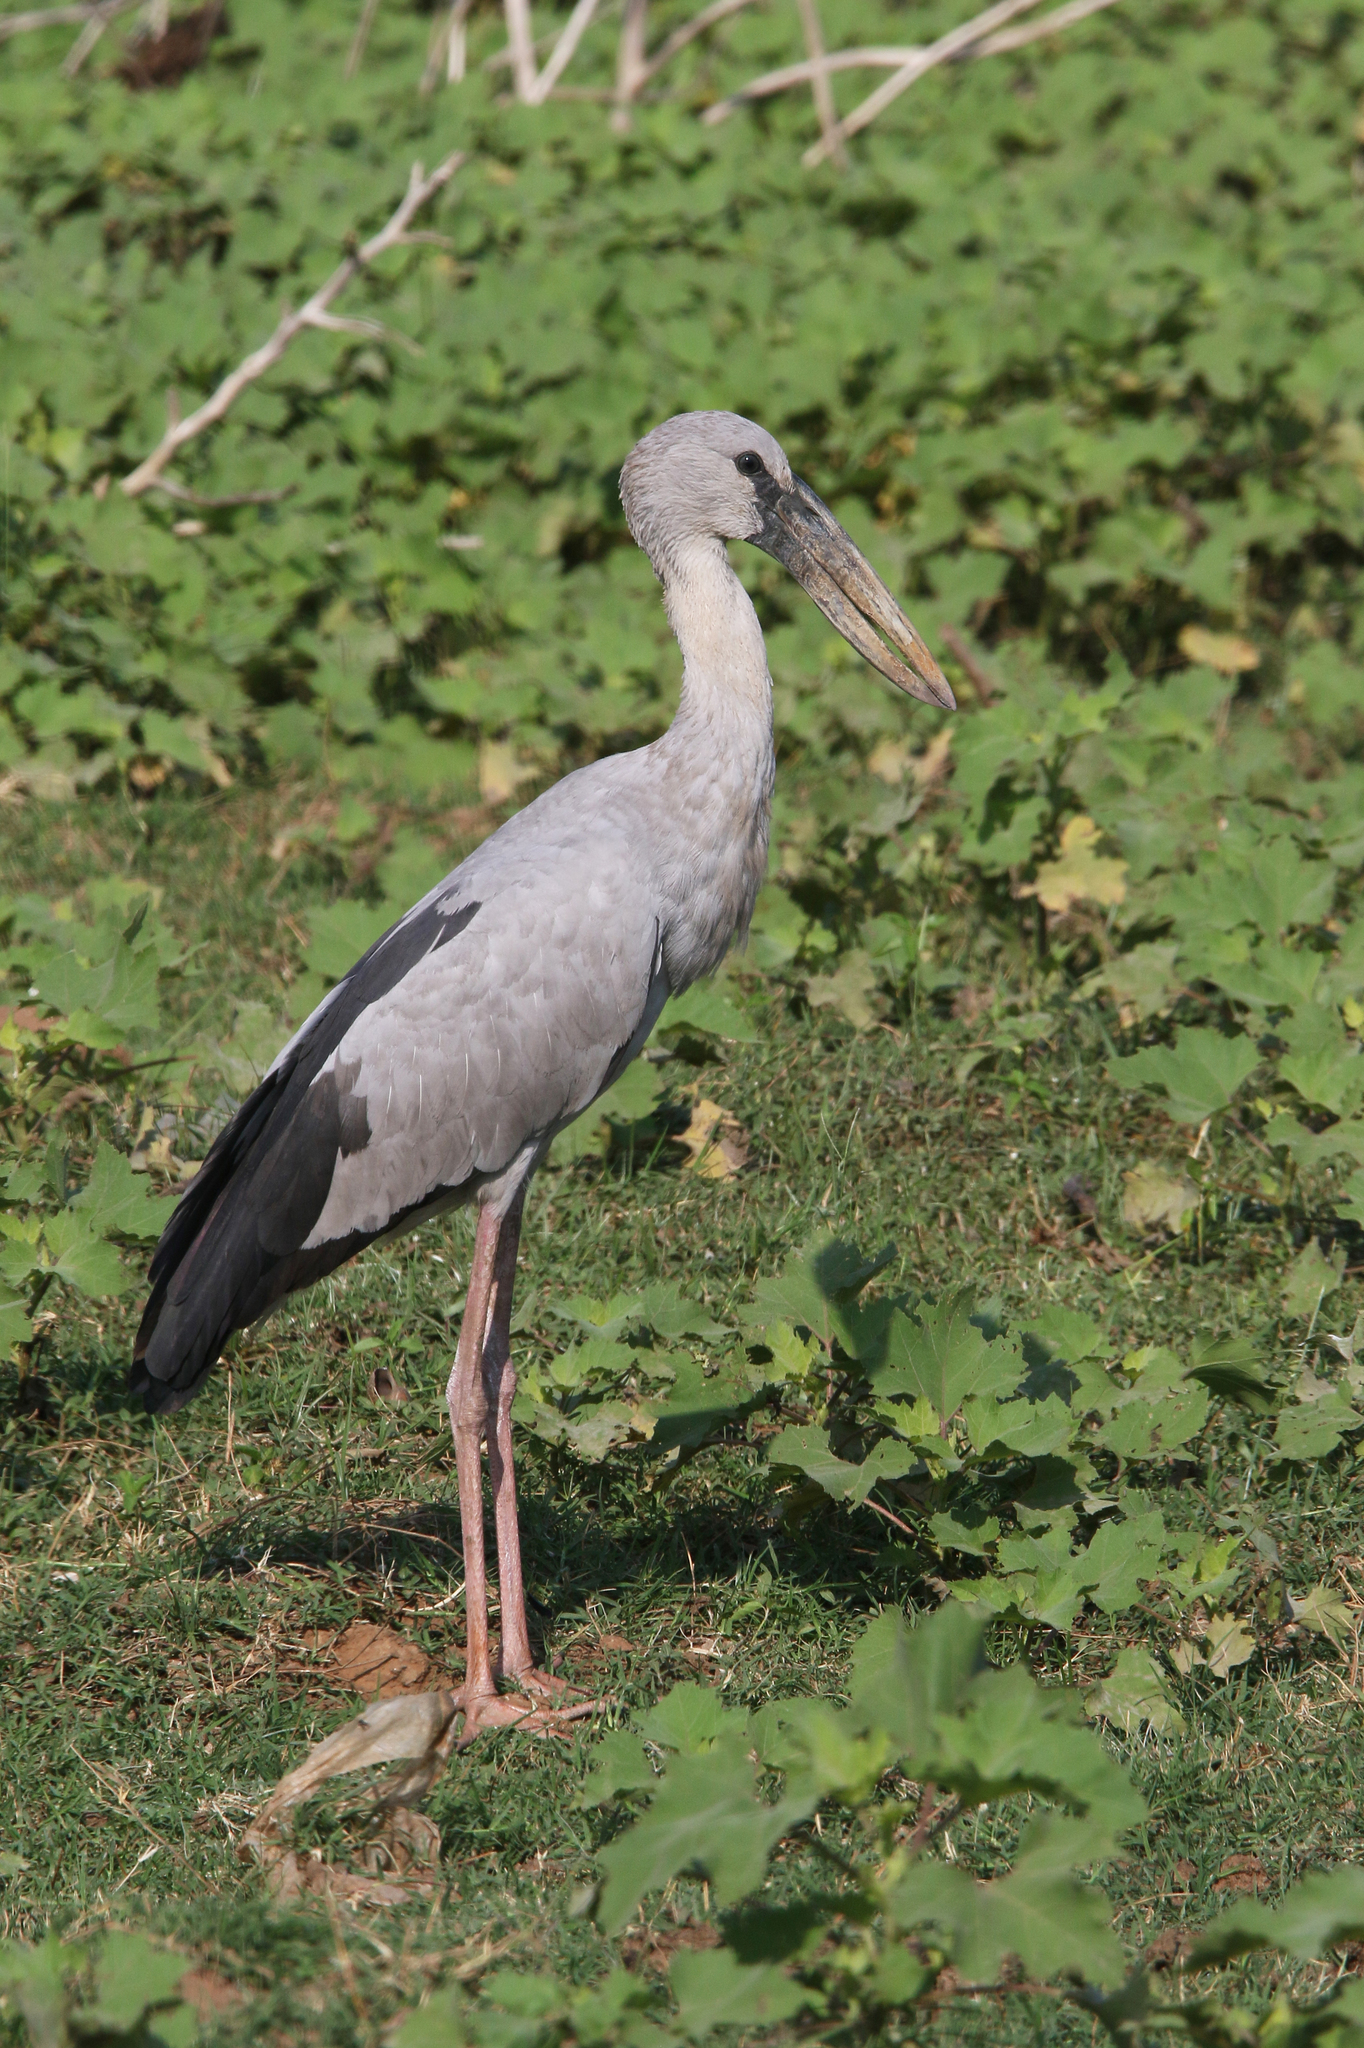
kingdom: Animalia
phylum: Chordata
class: Aves
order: Ciconiiformes
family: Ciconiidae
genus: Anastomus
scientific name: Anastomus oscitans
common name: Asian openbill
